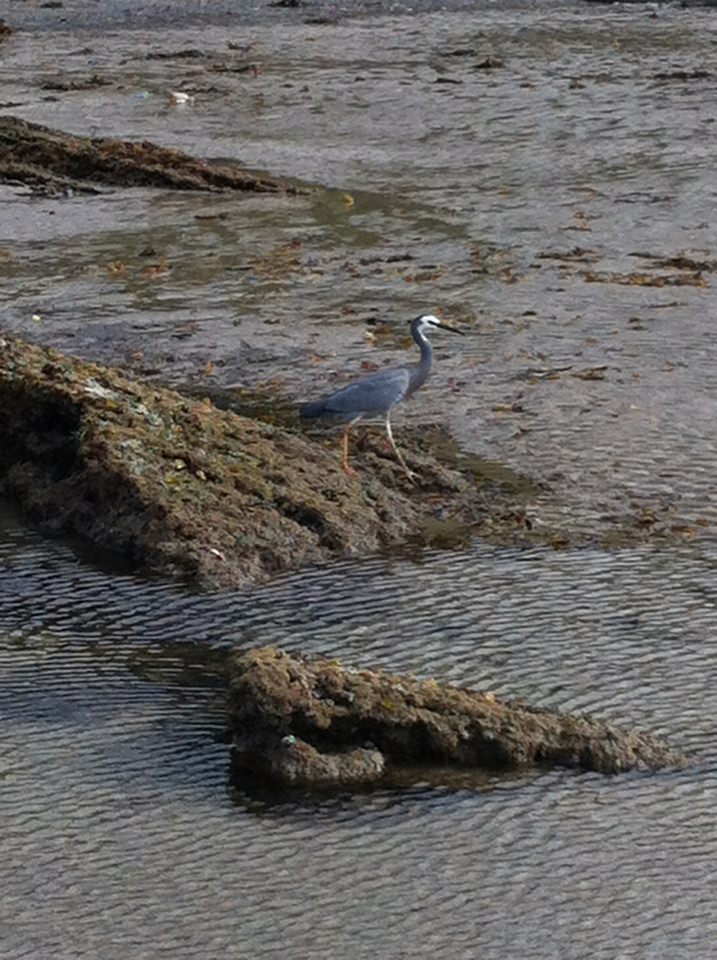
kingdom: Animalia
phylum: Chordata
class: Aves
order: Pelecaniformes
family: Ardeidae
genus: Egretta
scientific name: Egretta novaehollandiae
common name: White-faced heron
